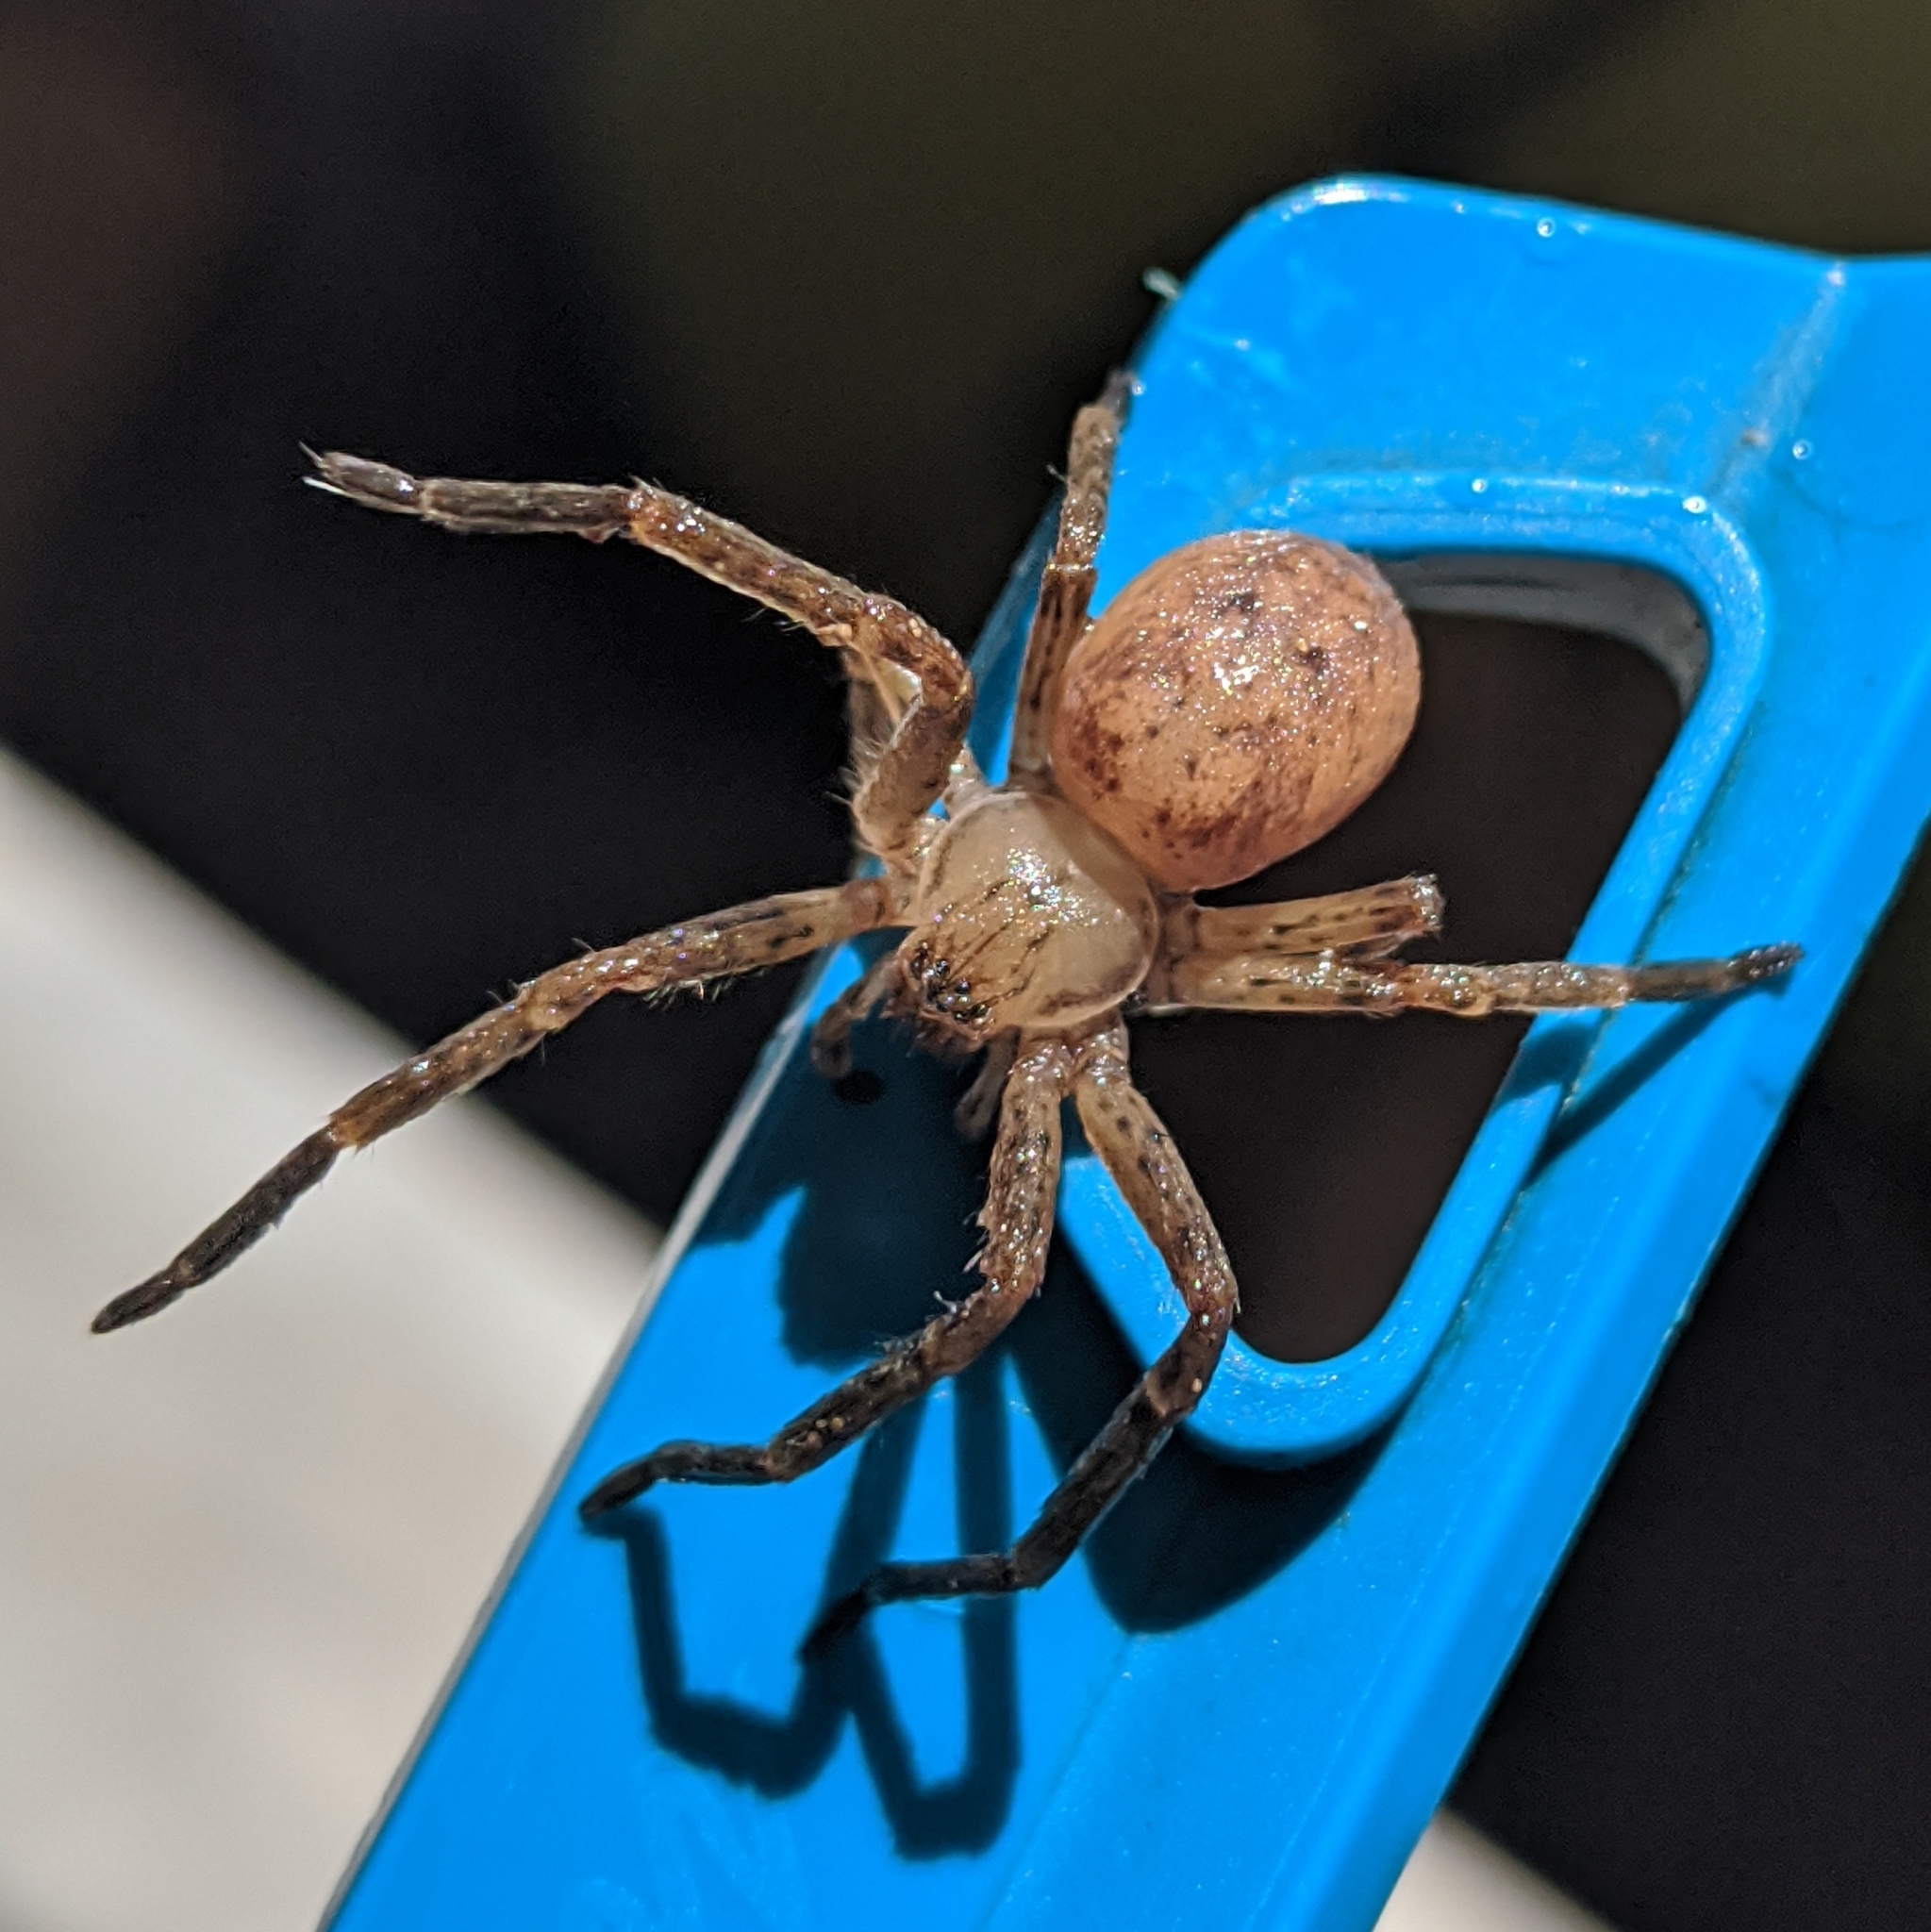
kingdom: Animalia
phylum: Arthropoda
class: Arachnida
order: Araneae
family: Sparassidae
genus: Olios
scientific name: Olios argelasius
